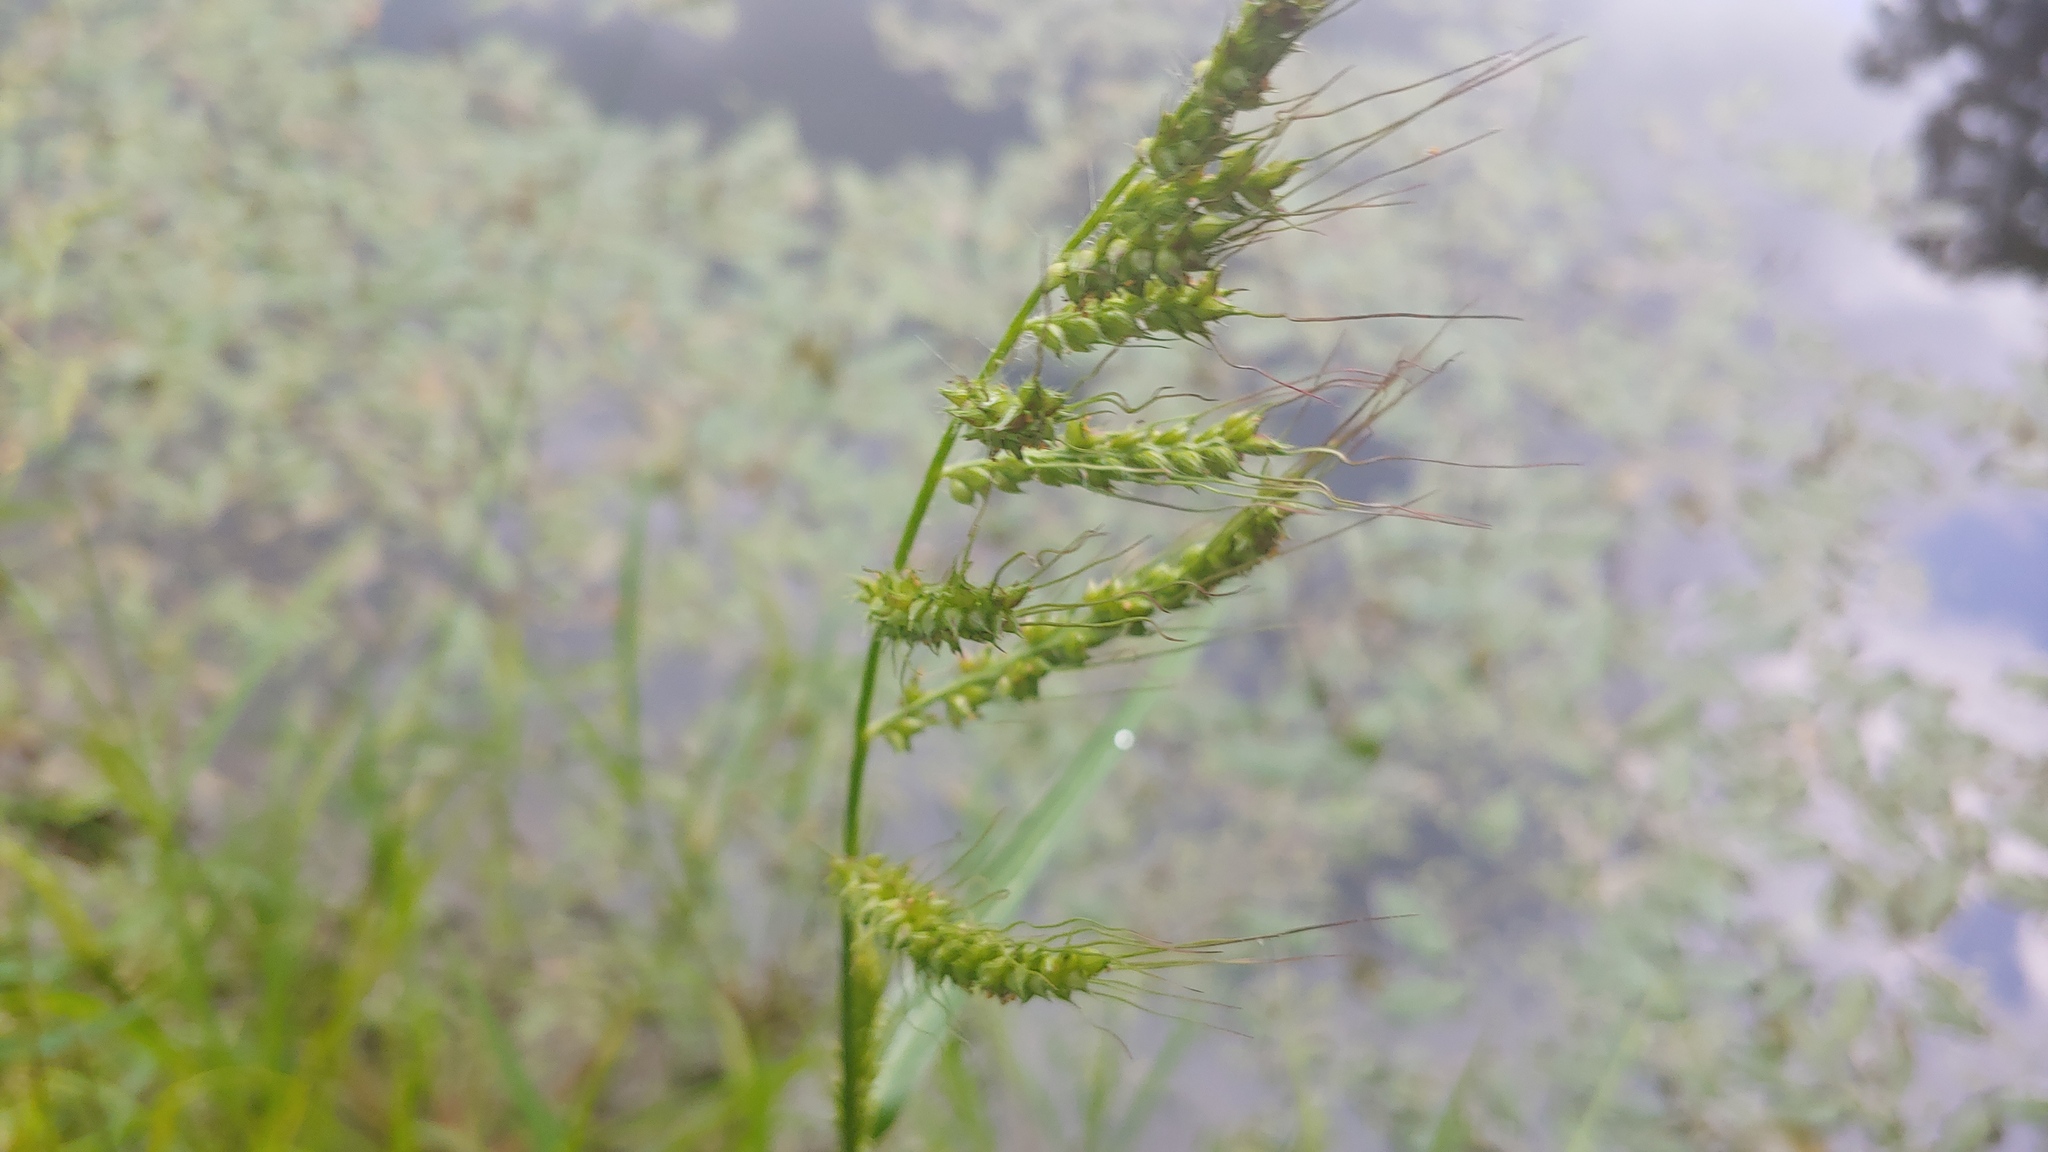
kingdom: Plantae
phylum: Tracheophyta
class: Liliopsida
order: Poales
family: Poaceae
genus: Echinochloa
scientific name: Echinochloa crus-galli
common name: Cockspur
